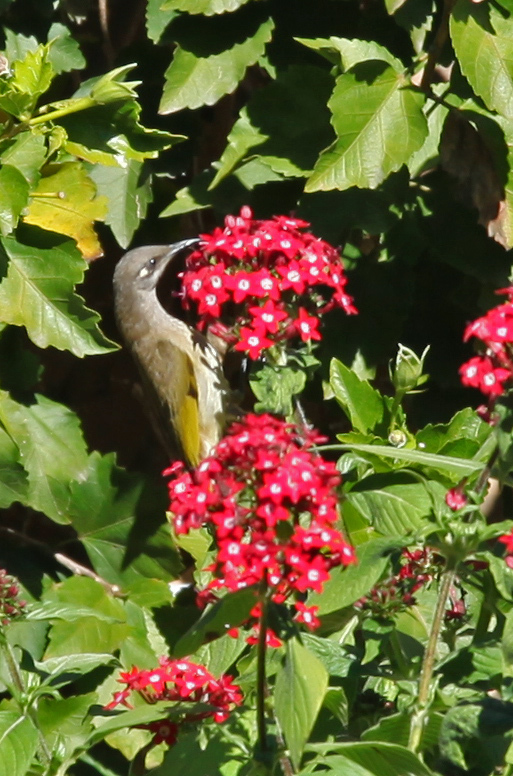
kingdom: Animalia
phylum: Chordata
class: Aves
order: Passeriformes
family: Meliphagidae
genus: Lichmera
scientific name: Lichmera indistincta
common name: Brown honeyeater
